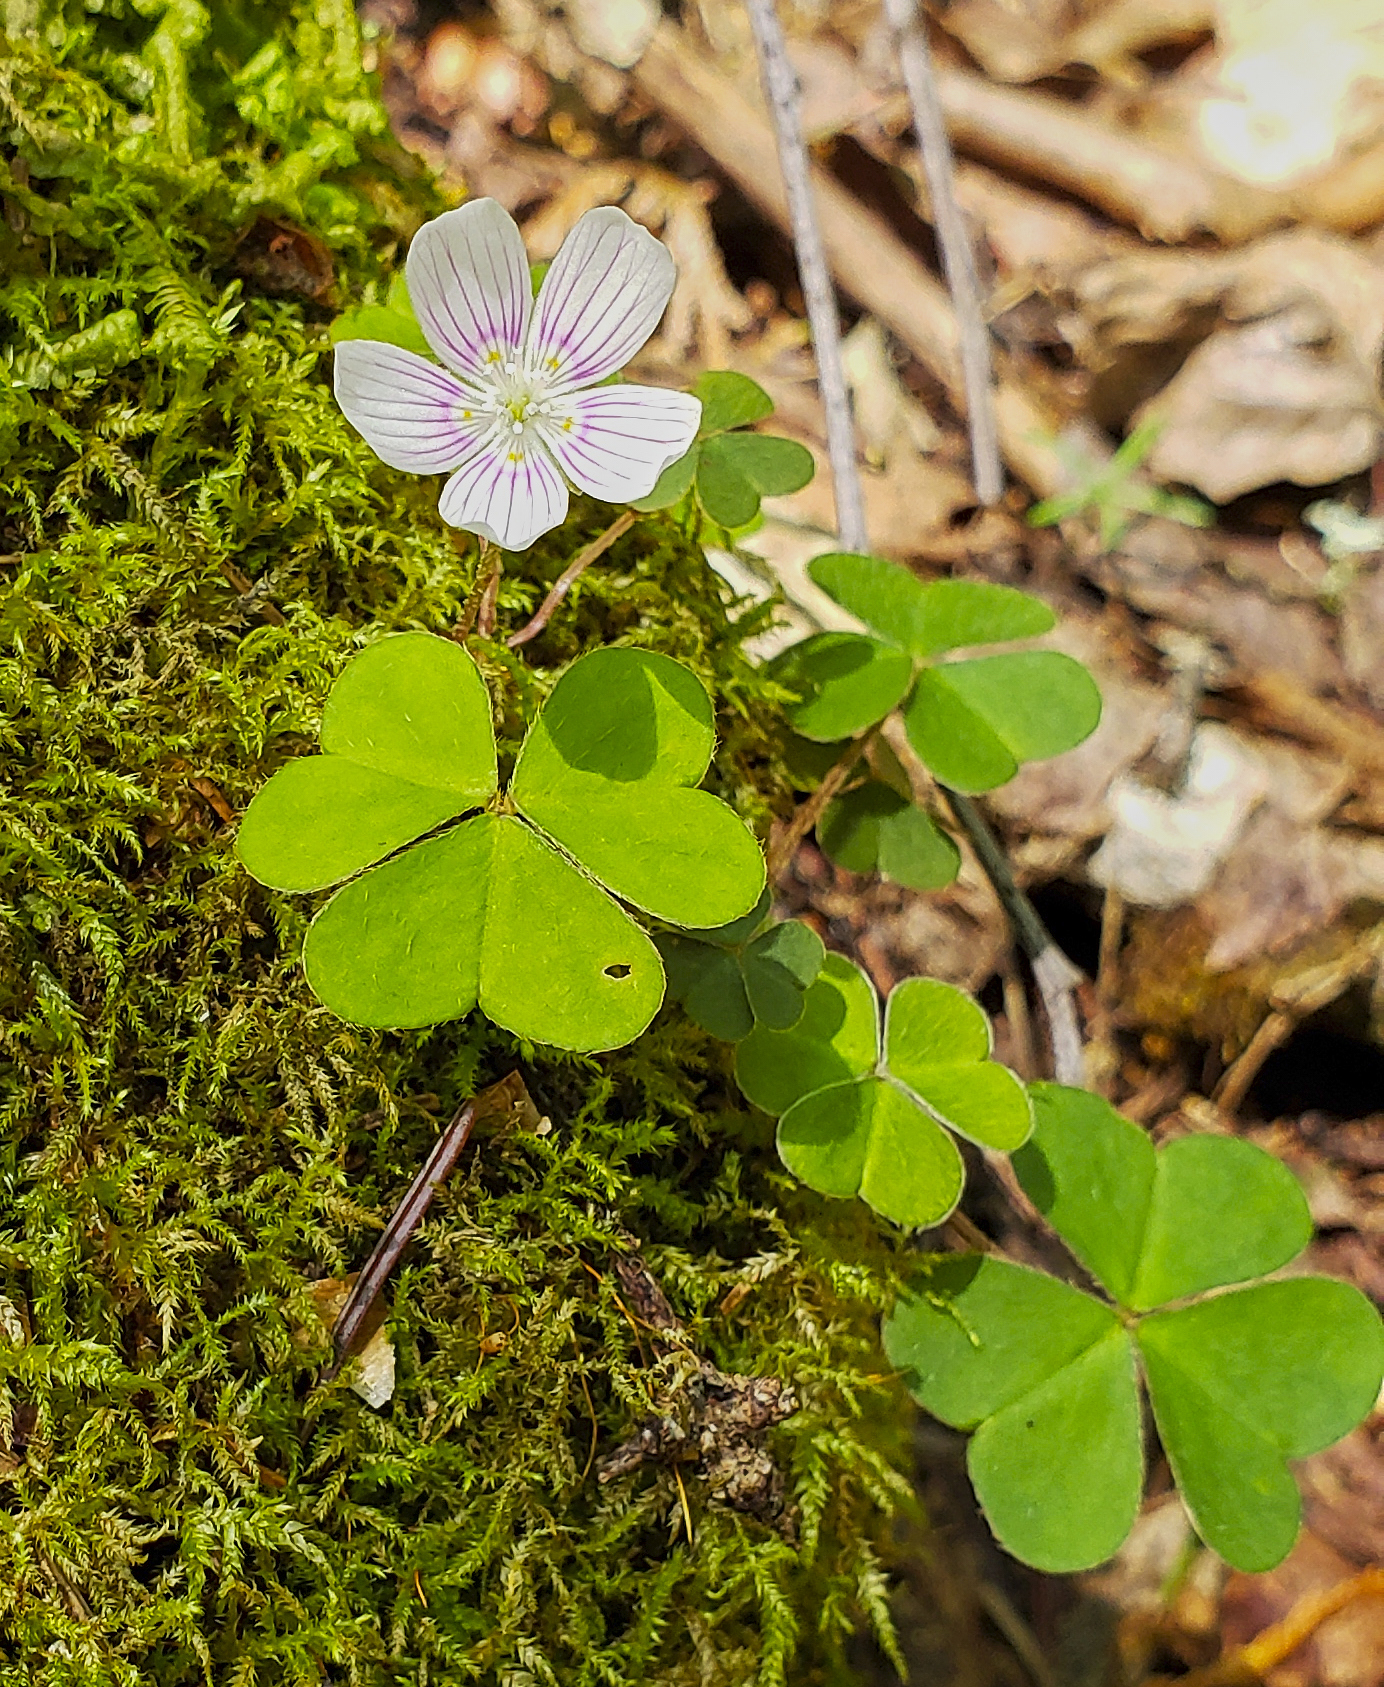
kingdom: Plantae
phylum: Tracheophyta
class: Magnoliopsida
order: Oxalidales
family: Oxalidaceae
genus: Oxalis
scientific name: Oxalis montana
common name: American wood-sorrel
